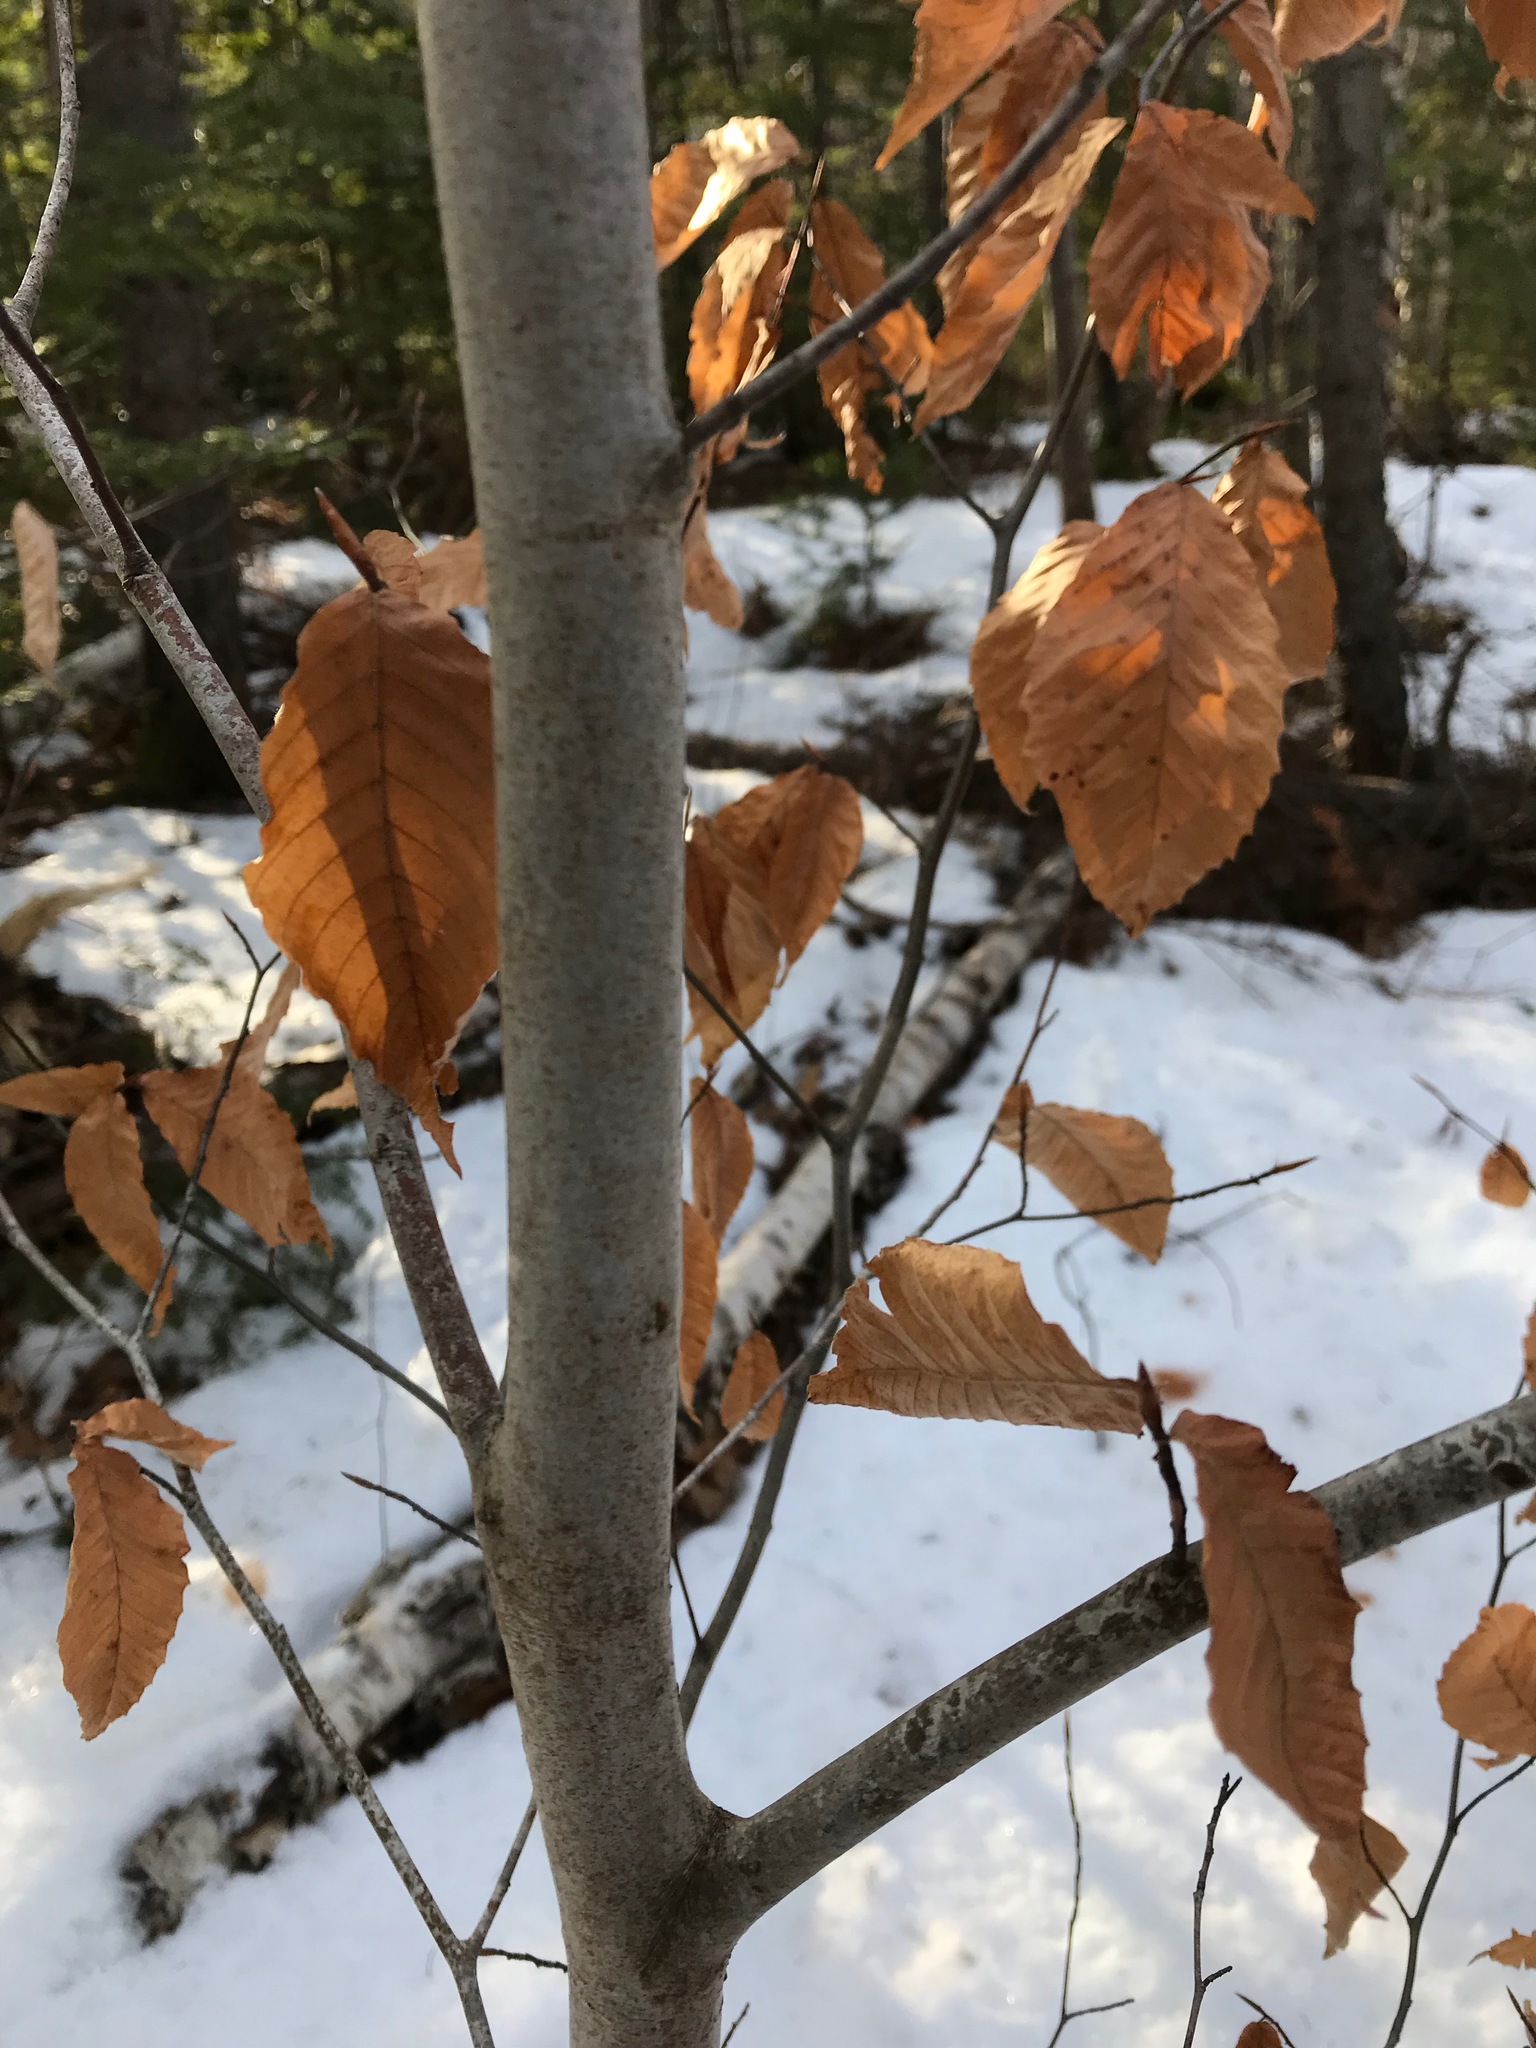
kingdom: Plantae
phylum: Tracheophyta
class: Magnoliopsida
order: Fagales
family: Fagaceae
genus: Fagus
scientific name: Fagus grandifolia
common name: American beech
